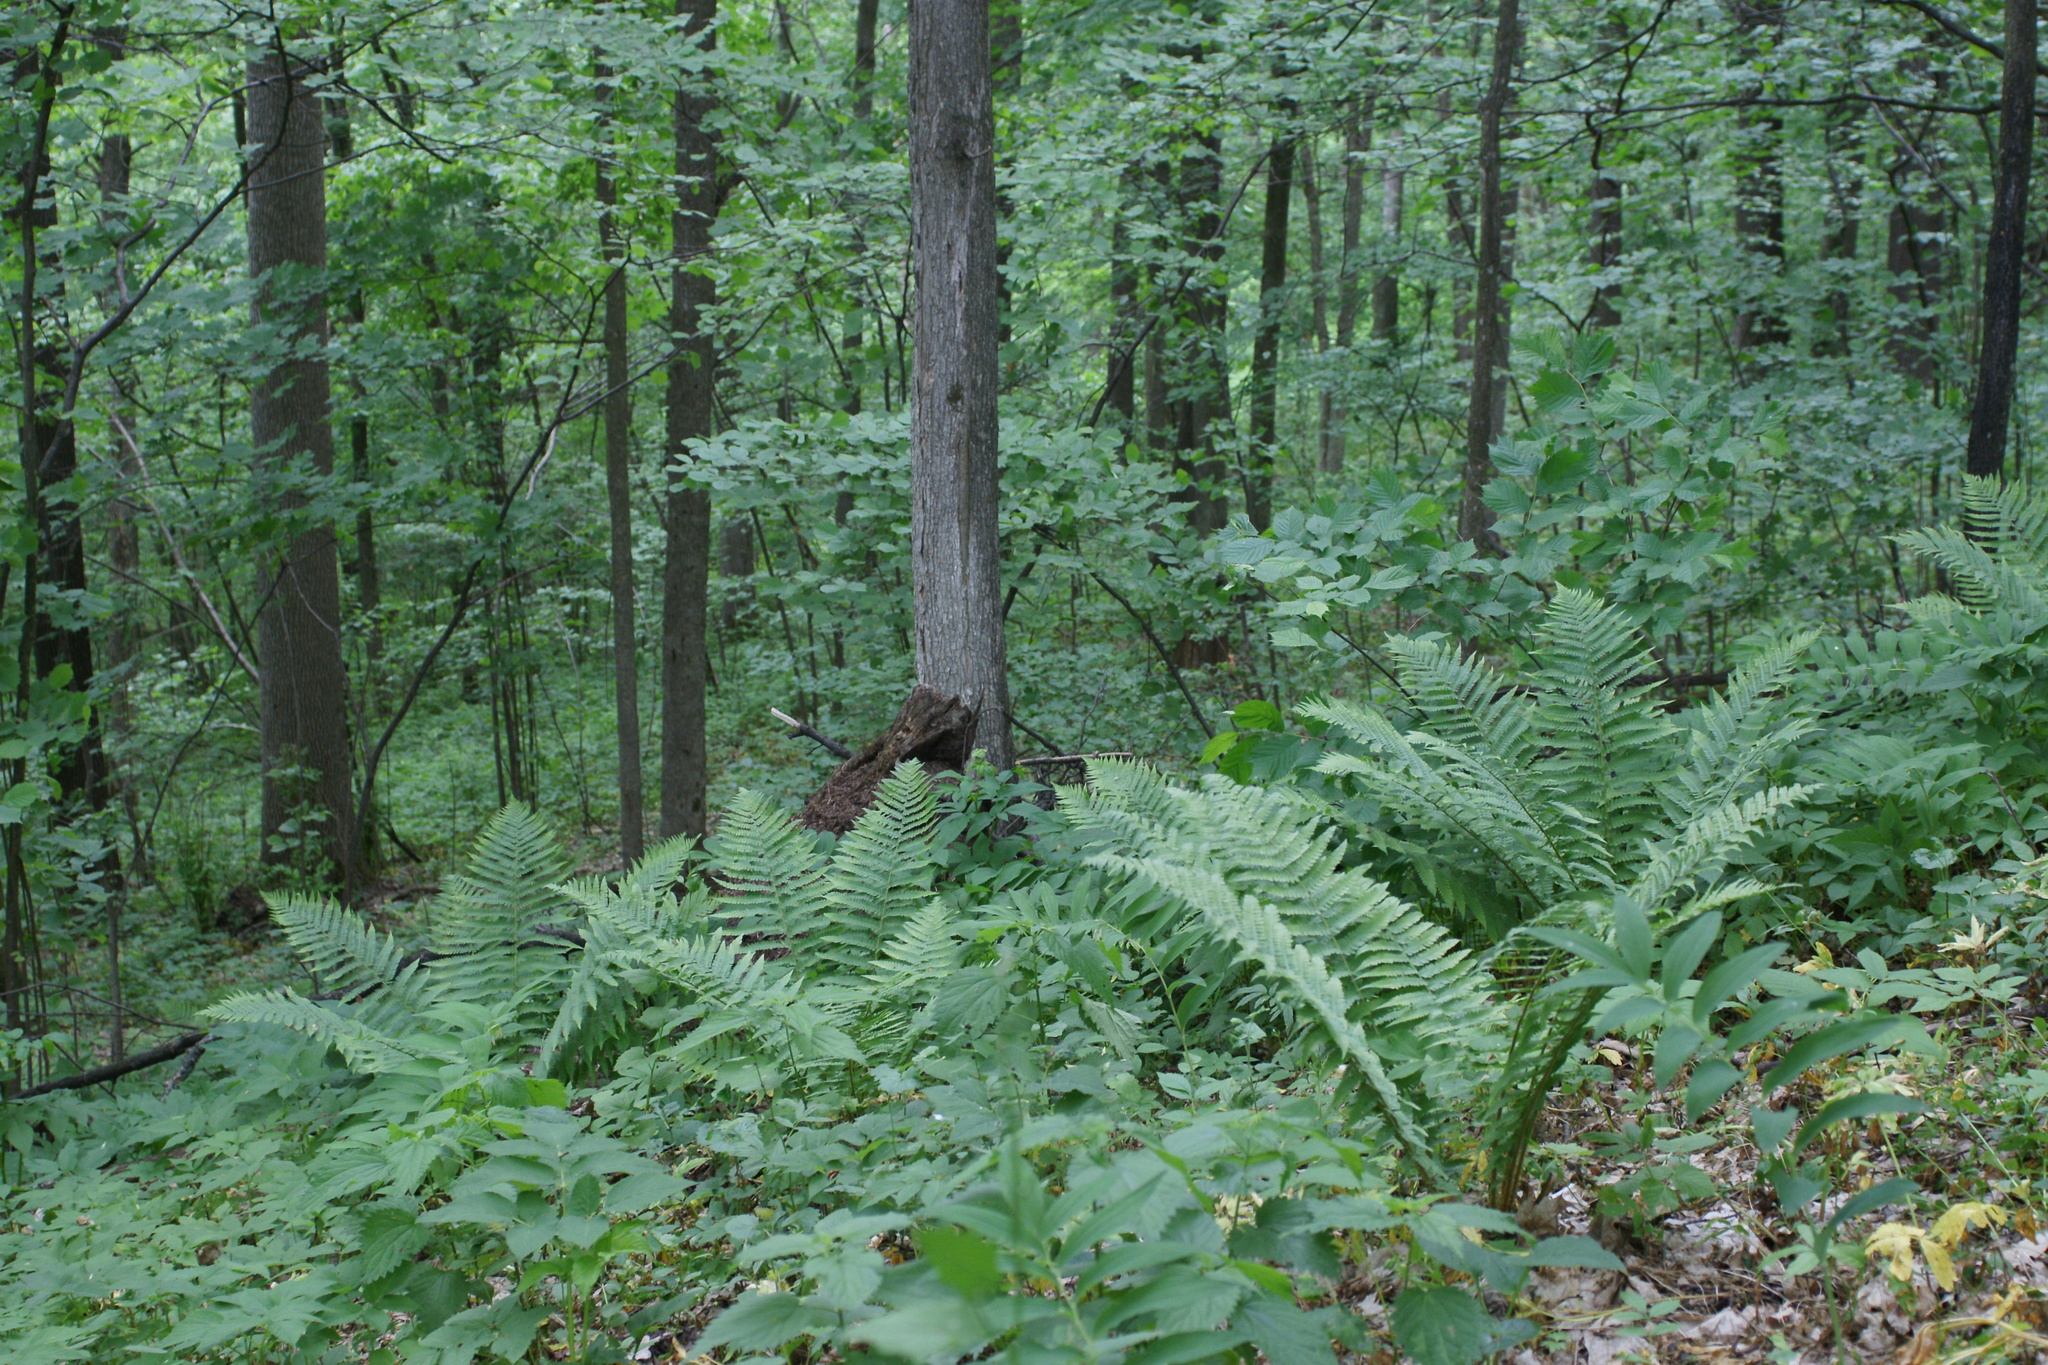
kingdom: Plantae
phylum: Tracheophyta
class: Polypodiopsida
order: Polypodiales
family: Dryopteridaceae
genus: Dryopteris
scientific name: Dryopteris filix-mas
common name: Male fern
